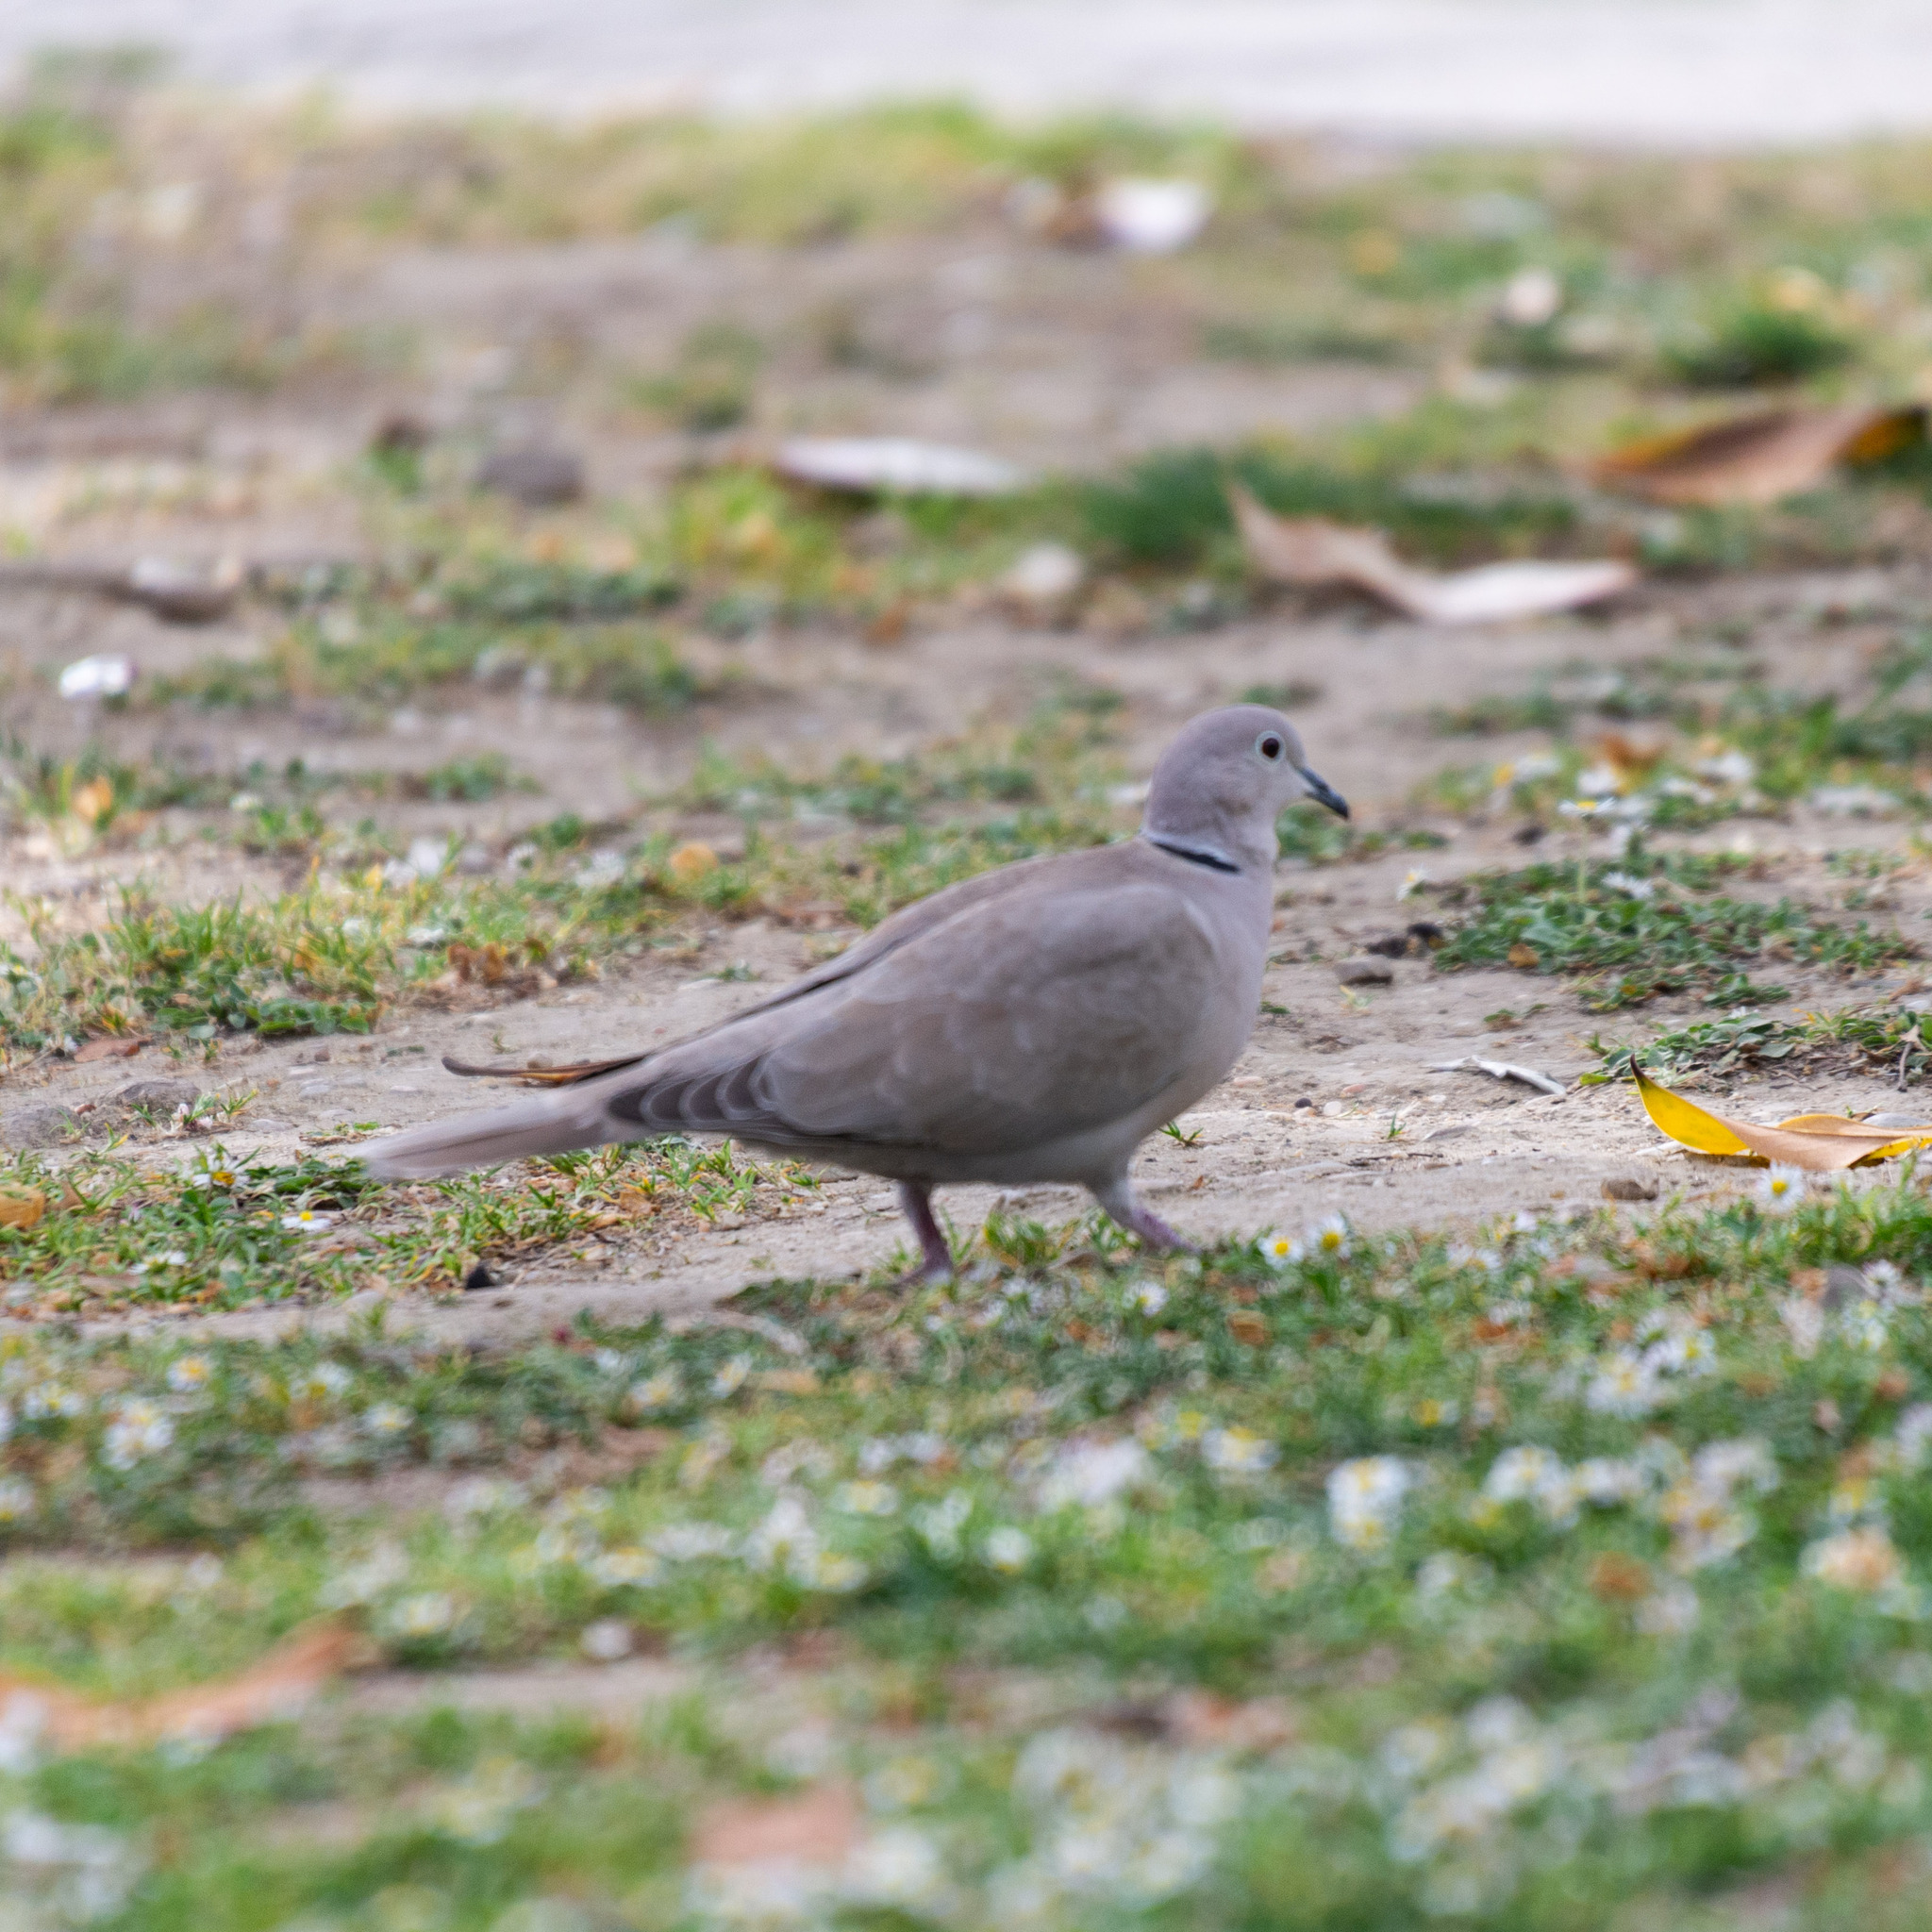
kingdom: Animalia
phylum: Chordata
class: Aves
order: Columbiformes
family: Columbidae
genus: Streptopelia
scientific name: Streptopelia decaocto
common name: Eurasian collared dove
